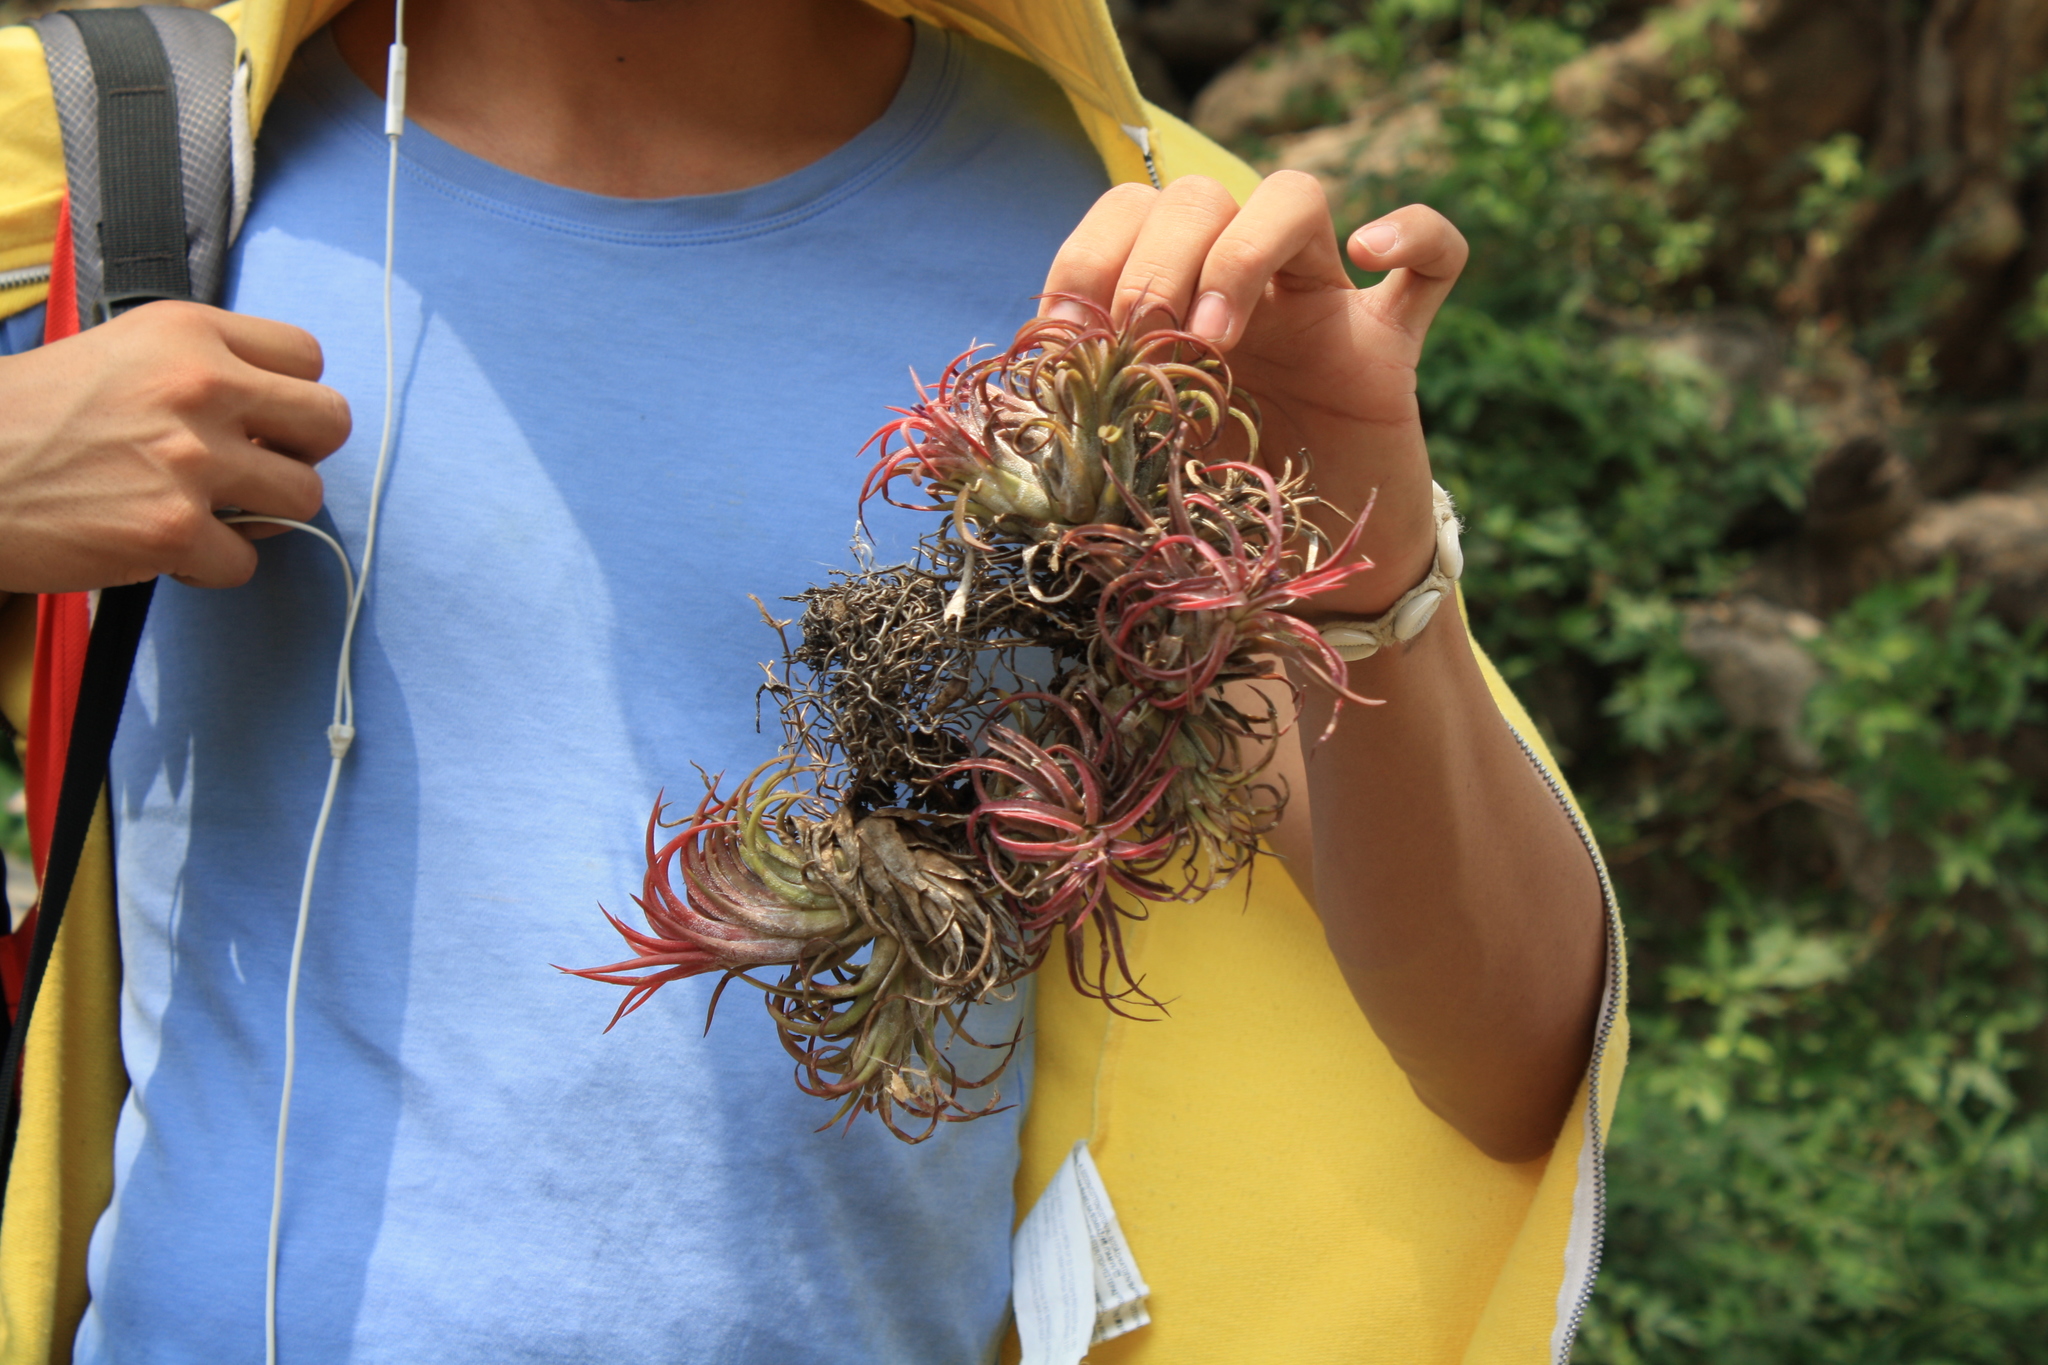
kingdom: Plantae
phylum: Tracheophyta
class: Liliopsida
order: Poales
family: Bromeliaceae
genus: Tillandsia
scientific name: Tillandsia ionantha
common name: Sky plant
